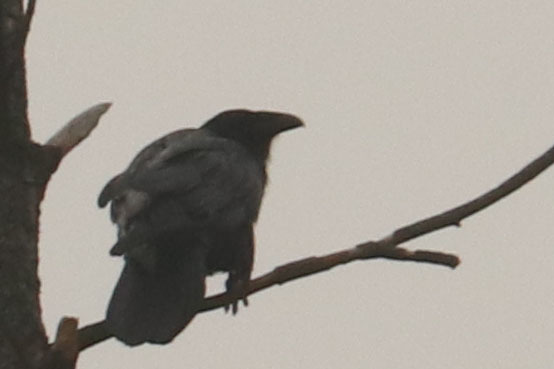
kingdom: Animalia
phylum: Chordata
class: Aves
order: Passeriformes
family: Corvidae
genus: Corvus
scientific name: Corvus corax
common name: Common raven
